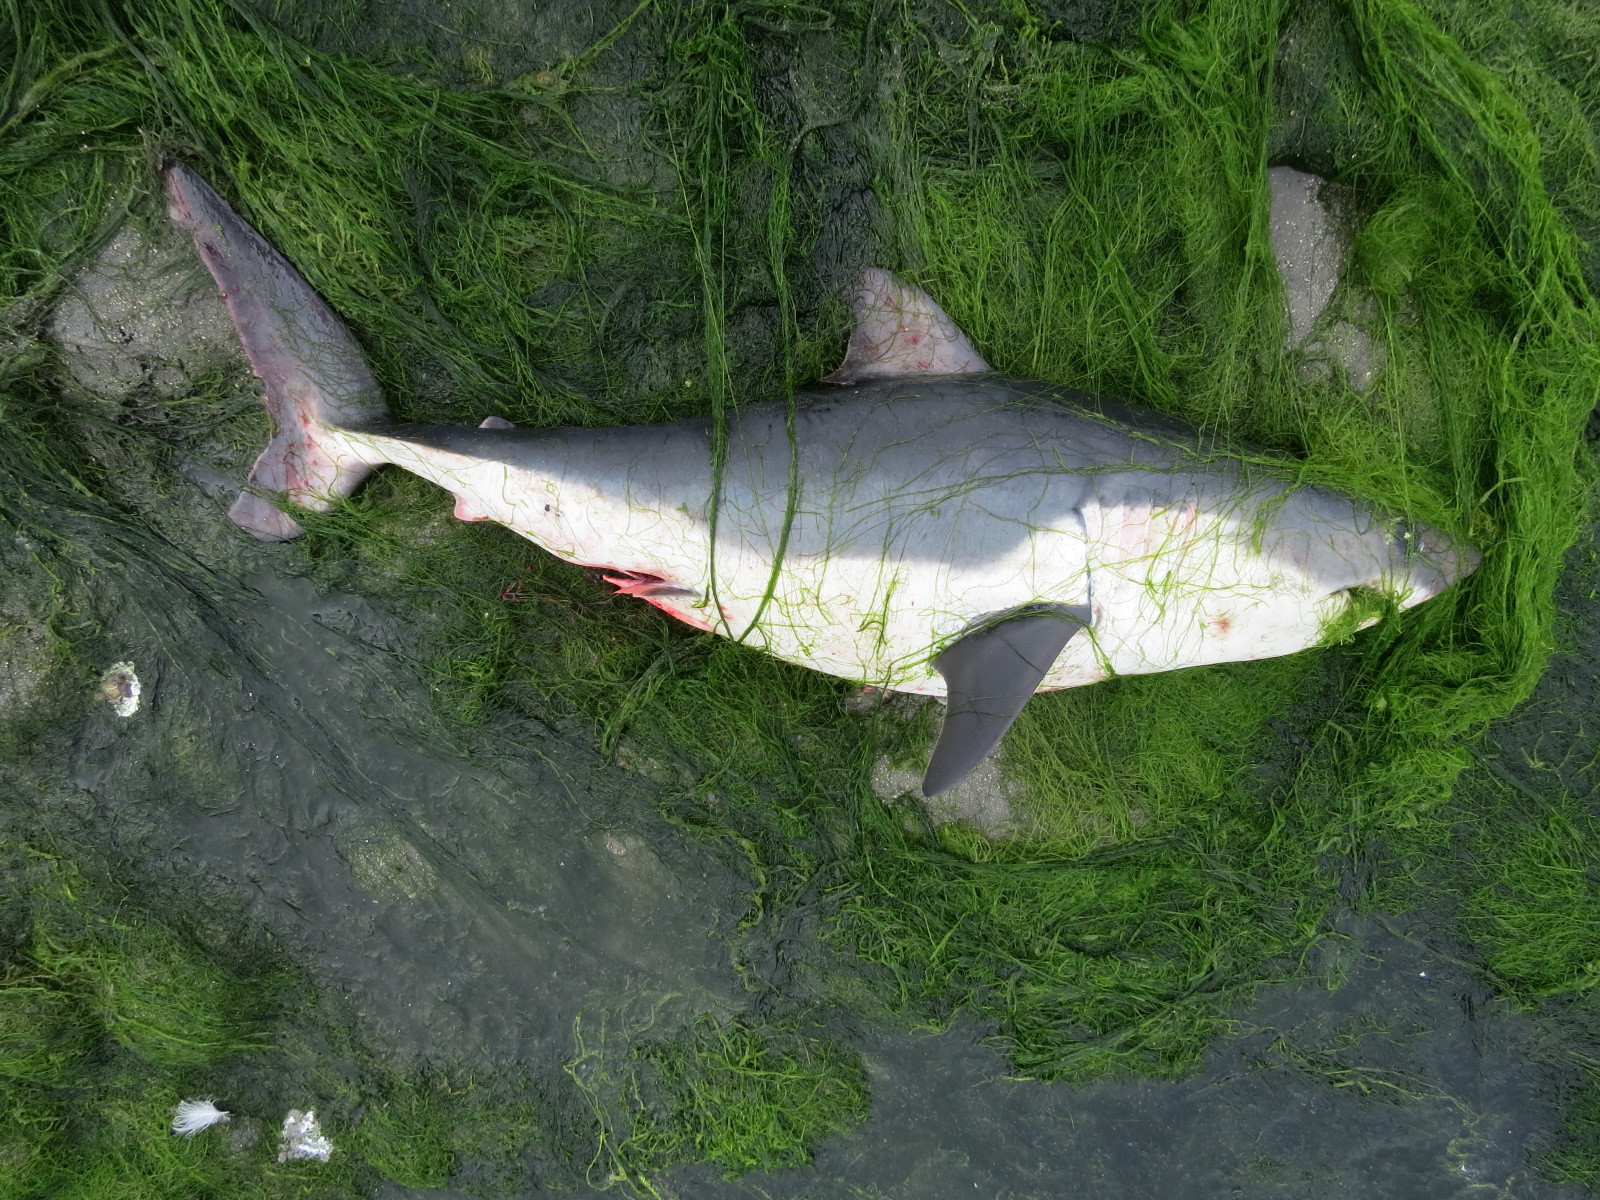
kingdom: Animalia
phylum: Chordata
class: Elasmobranchii
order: Lamniformes
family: Lamnidae
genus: Lamna
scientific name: Lamna ditropis
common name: Salmon shark
